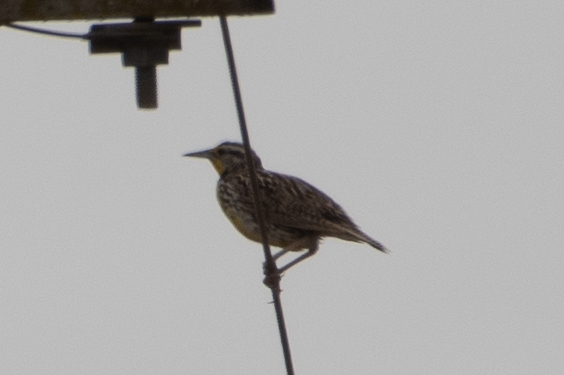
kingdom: Animalia
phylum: Chordata
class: Aves
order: Passeriformes
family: Icteridae
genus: Sturnella
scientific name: Sturnella neglecta
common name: Western meadowlark
